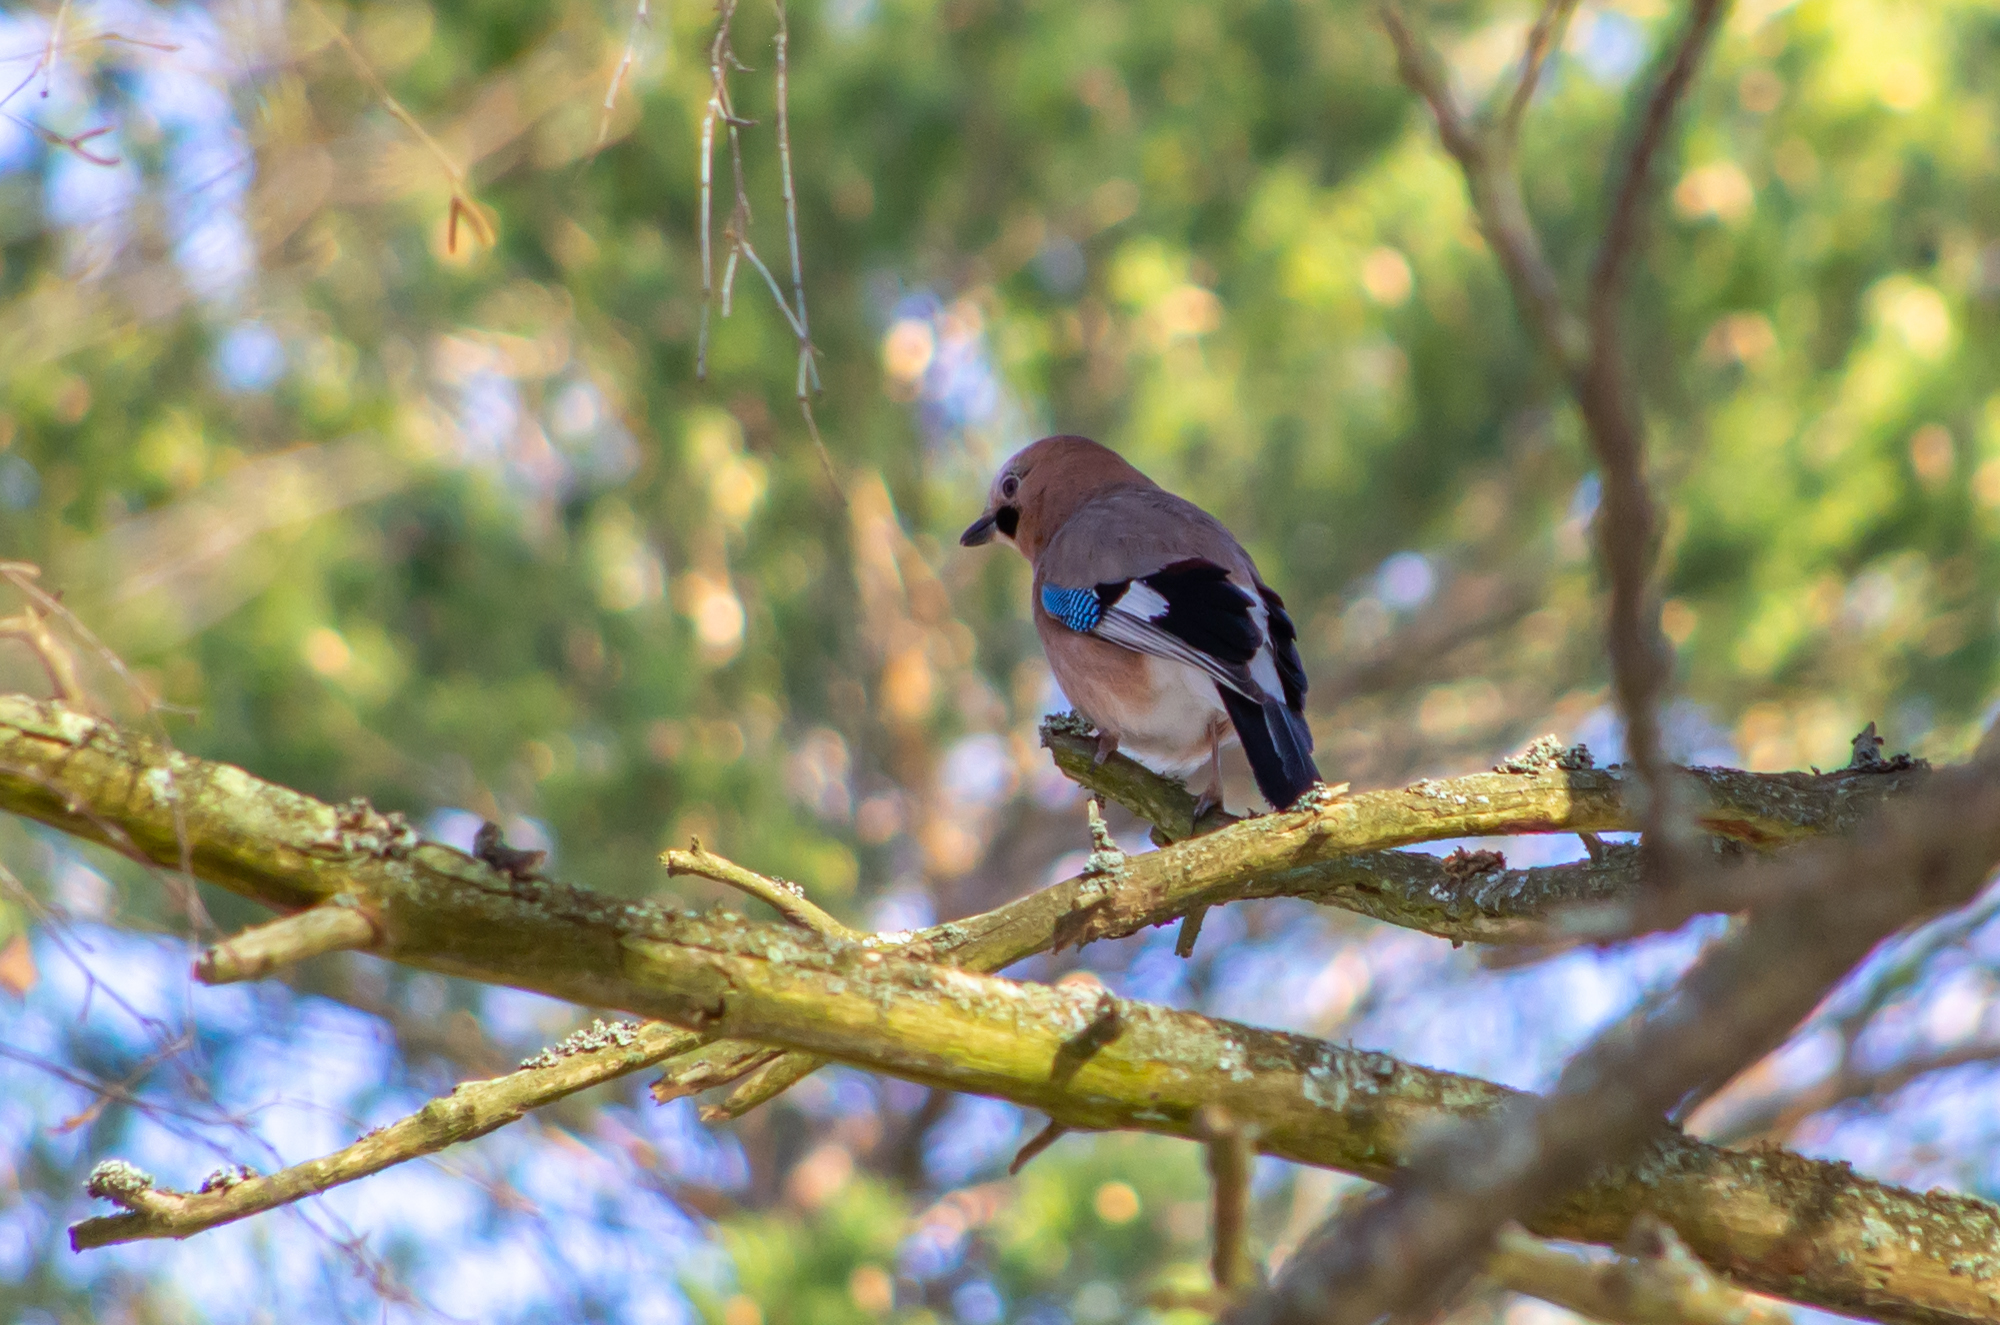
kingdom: Animalia
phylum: Chordata
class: Aves
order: Passeriformes
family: Corvidae
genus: Garrulus
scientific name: Garrulus glandarius
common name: Eurasian jay
